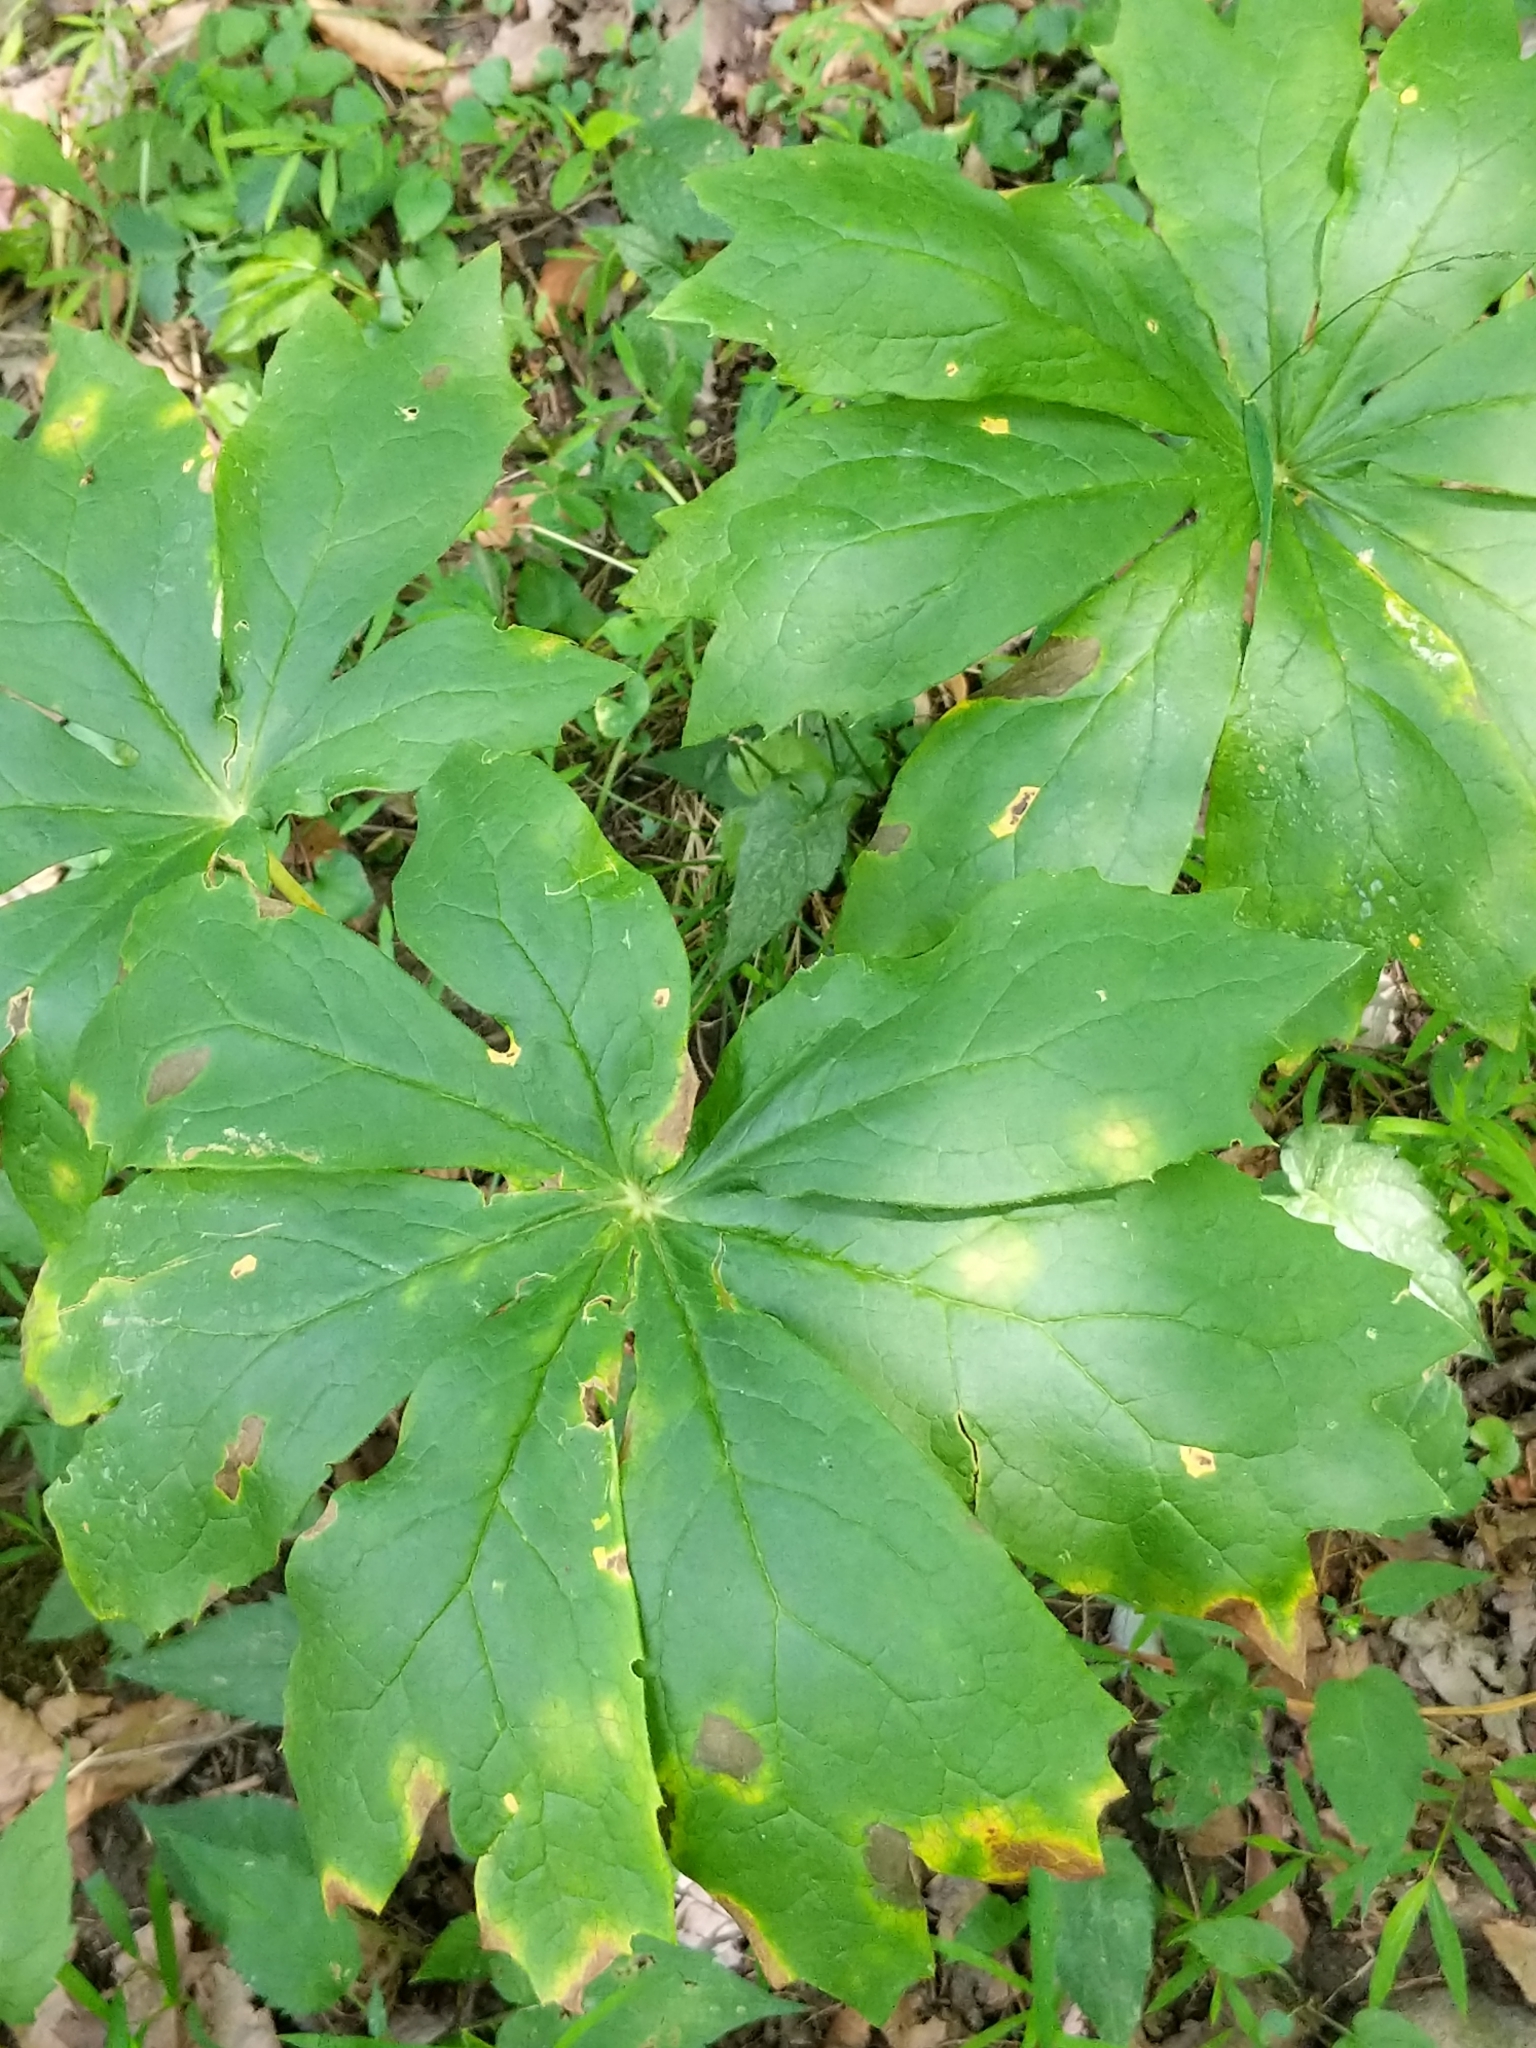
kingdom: Plantae
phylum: Tracheophyta
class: Magnoliopsida
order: Ranunculales
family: Berberidaceae
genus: Podophyllum
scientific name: Podophyllum peltatum
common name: Wild mandrake
